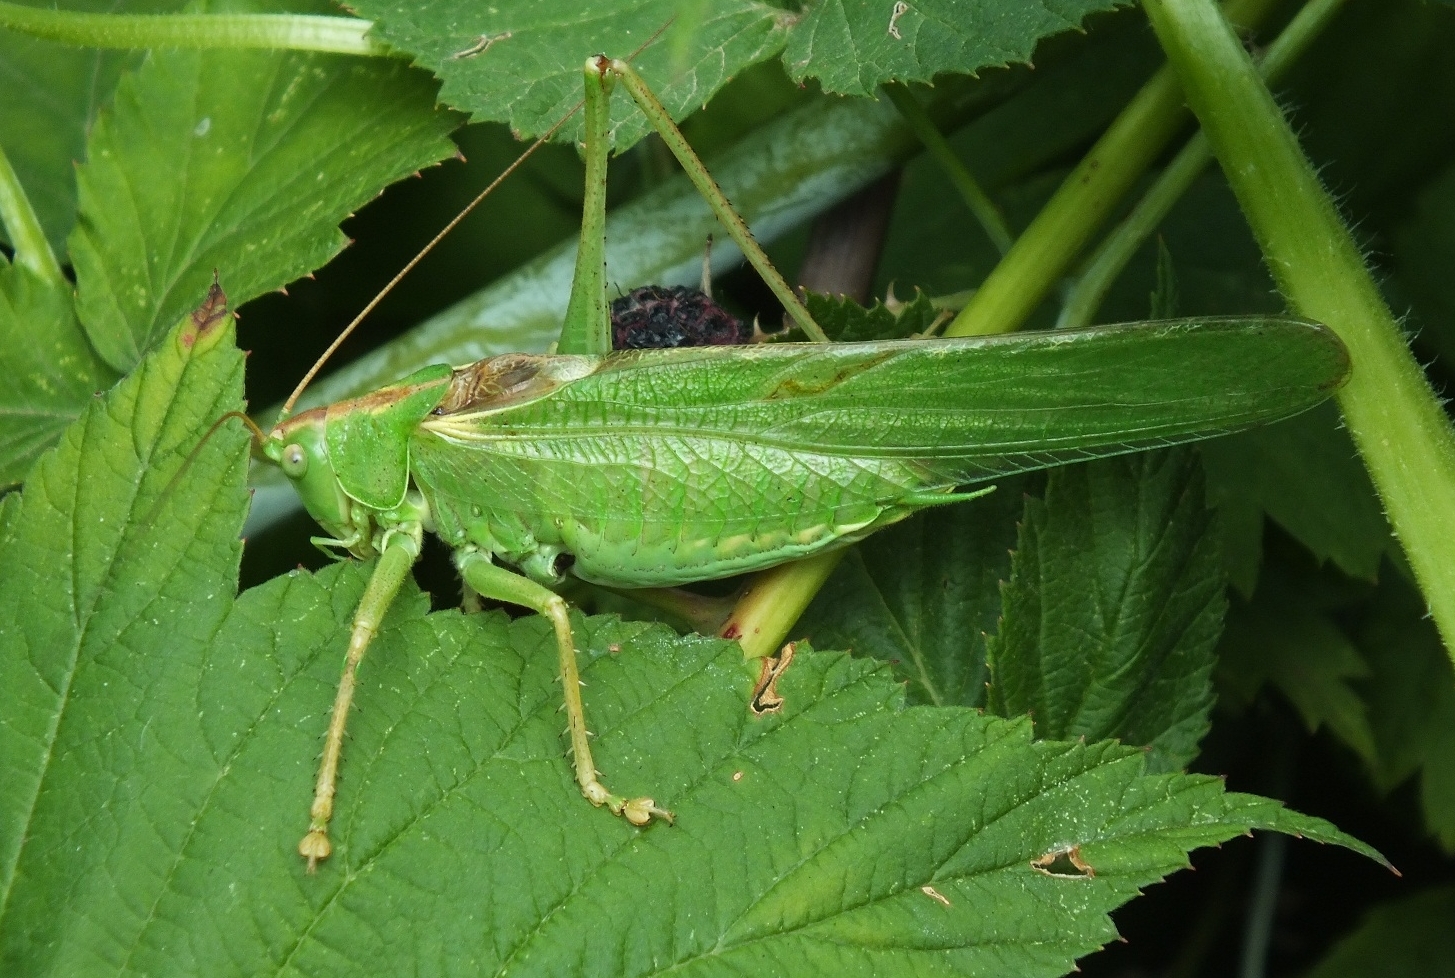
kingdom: Animalia
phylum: Arthropoda
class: Insecta
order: Orthoptera
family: Tettigoniidae
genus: Tettigonia
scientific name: Tettigonia viridissima
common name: Great green bush-cricket
